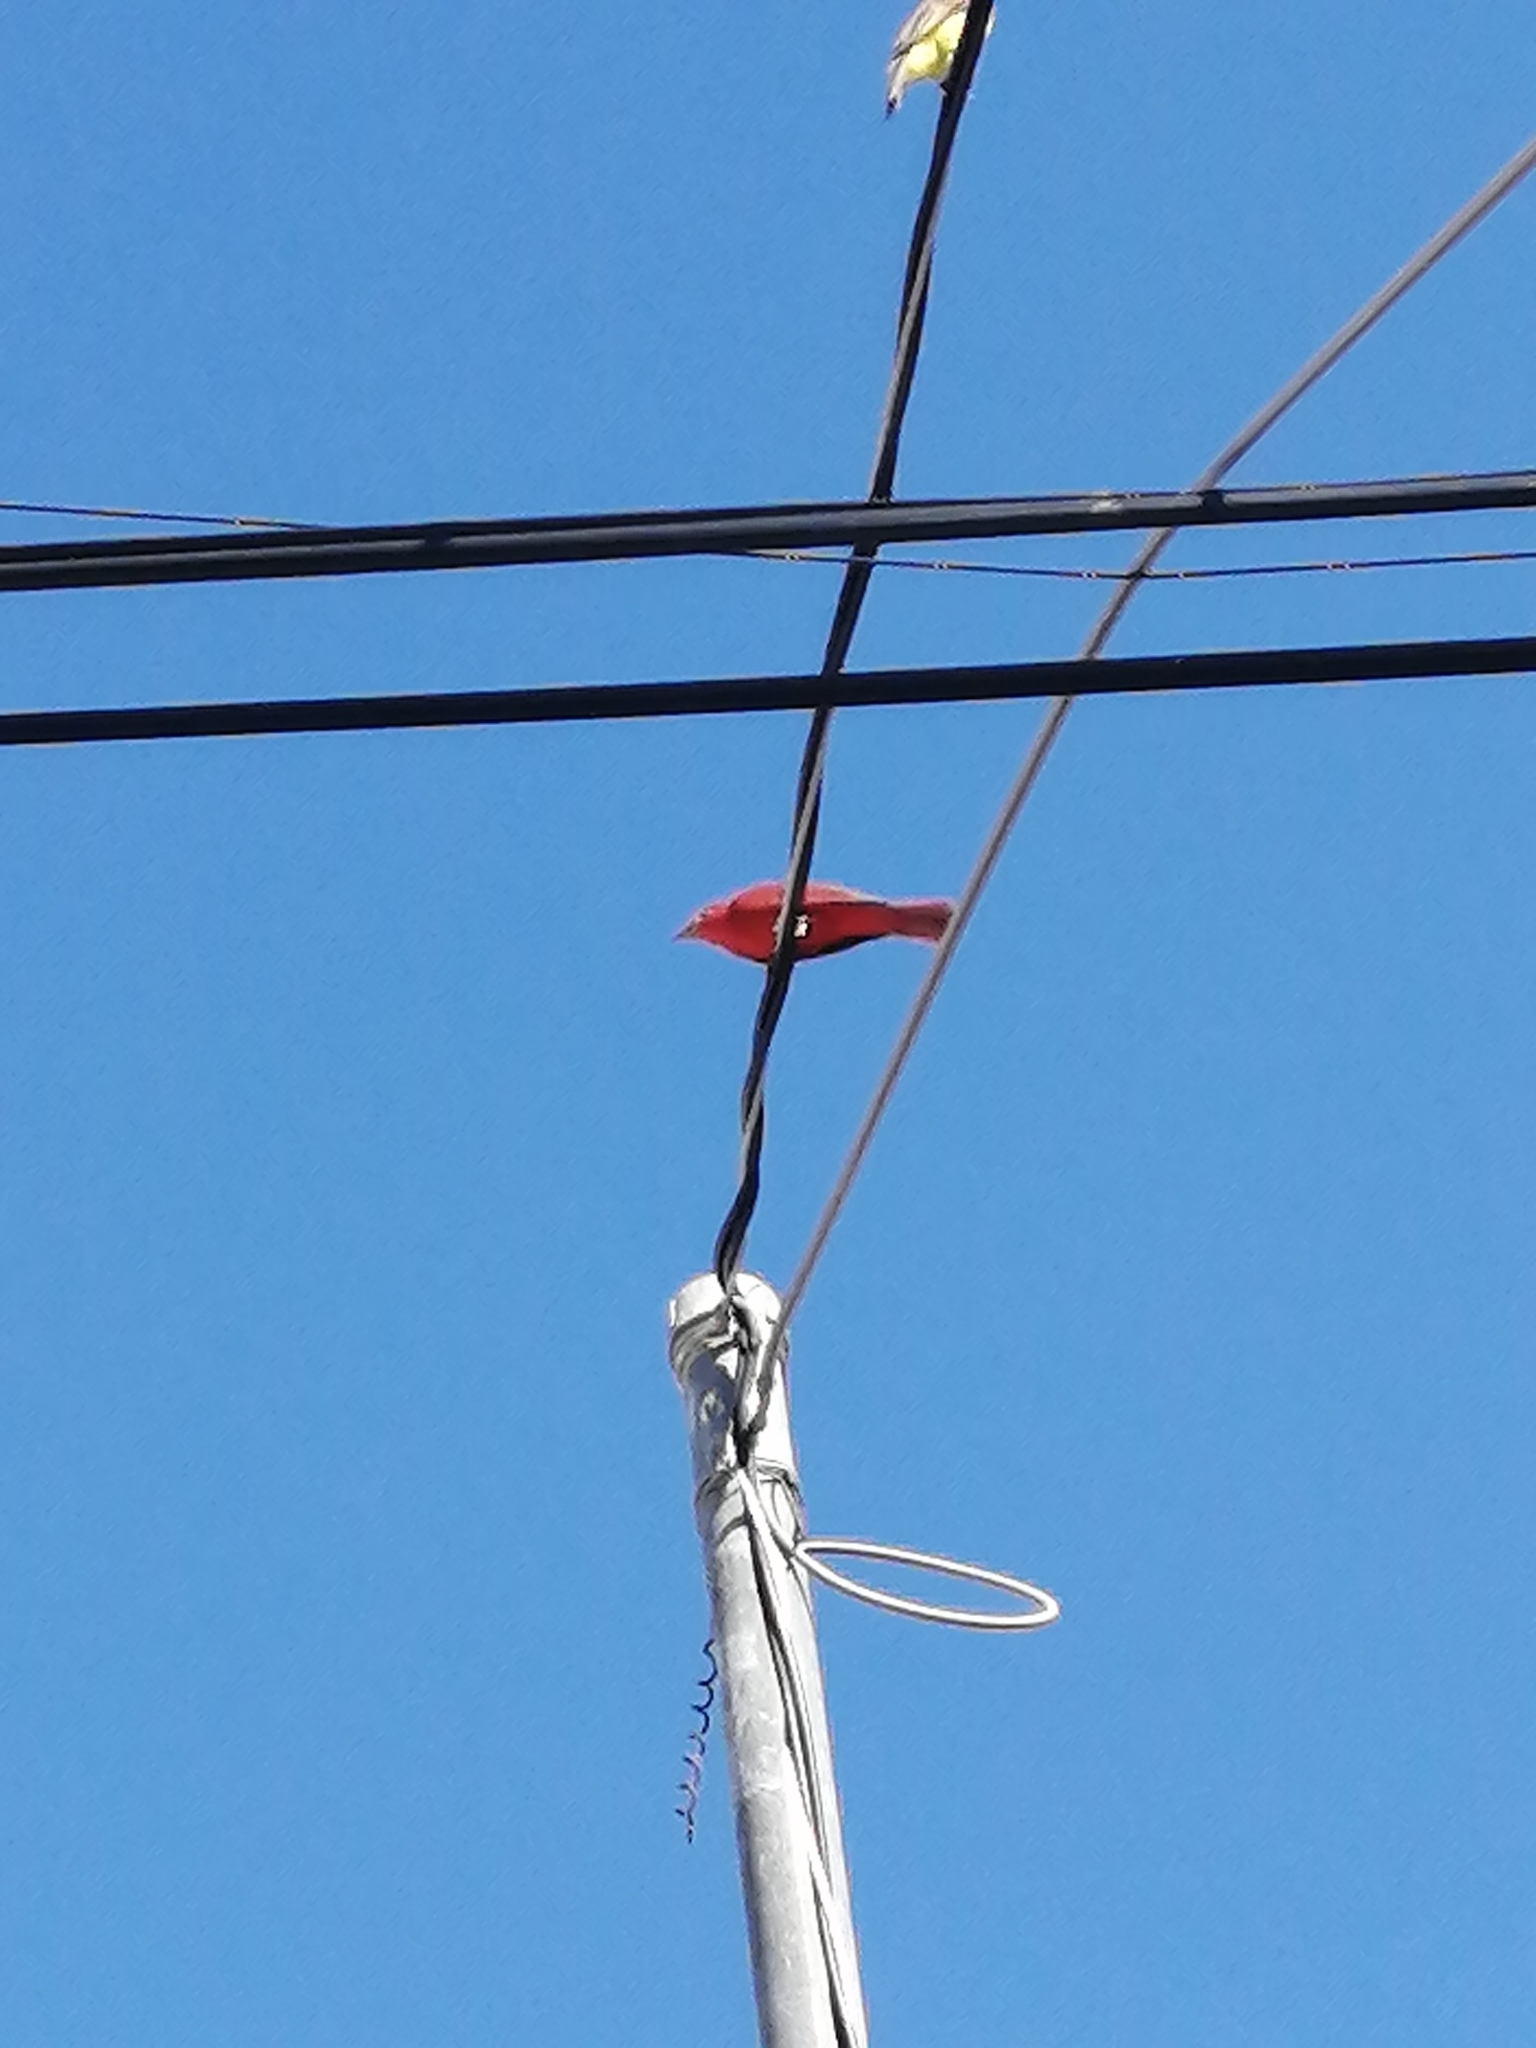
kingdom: Animalia
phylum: Chordata
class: Aves
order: Passeriformes
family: Cardinalidae
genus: Piranga
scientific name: Piranga rubra
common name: Summer tanager
